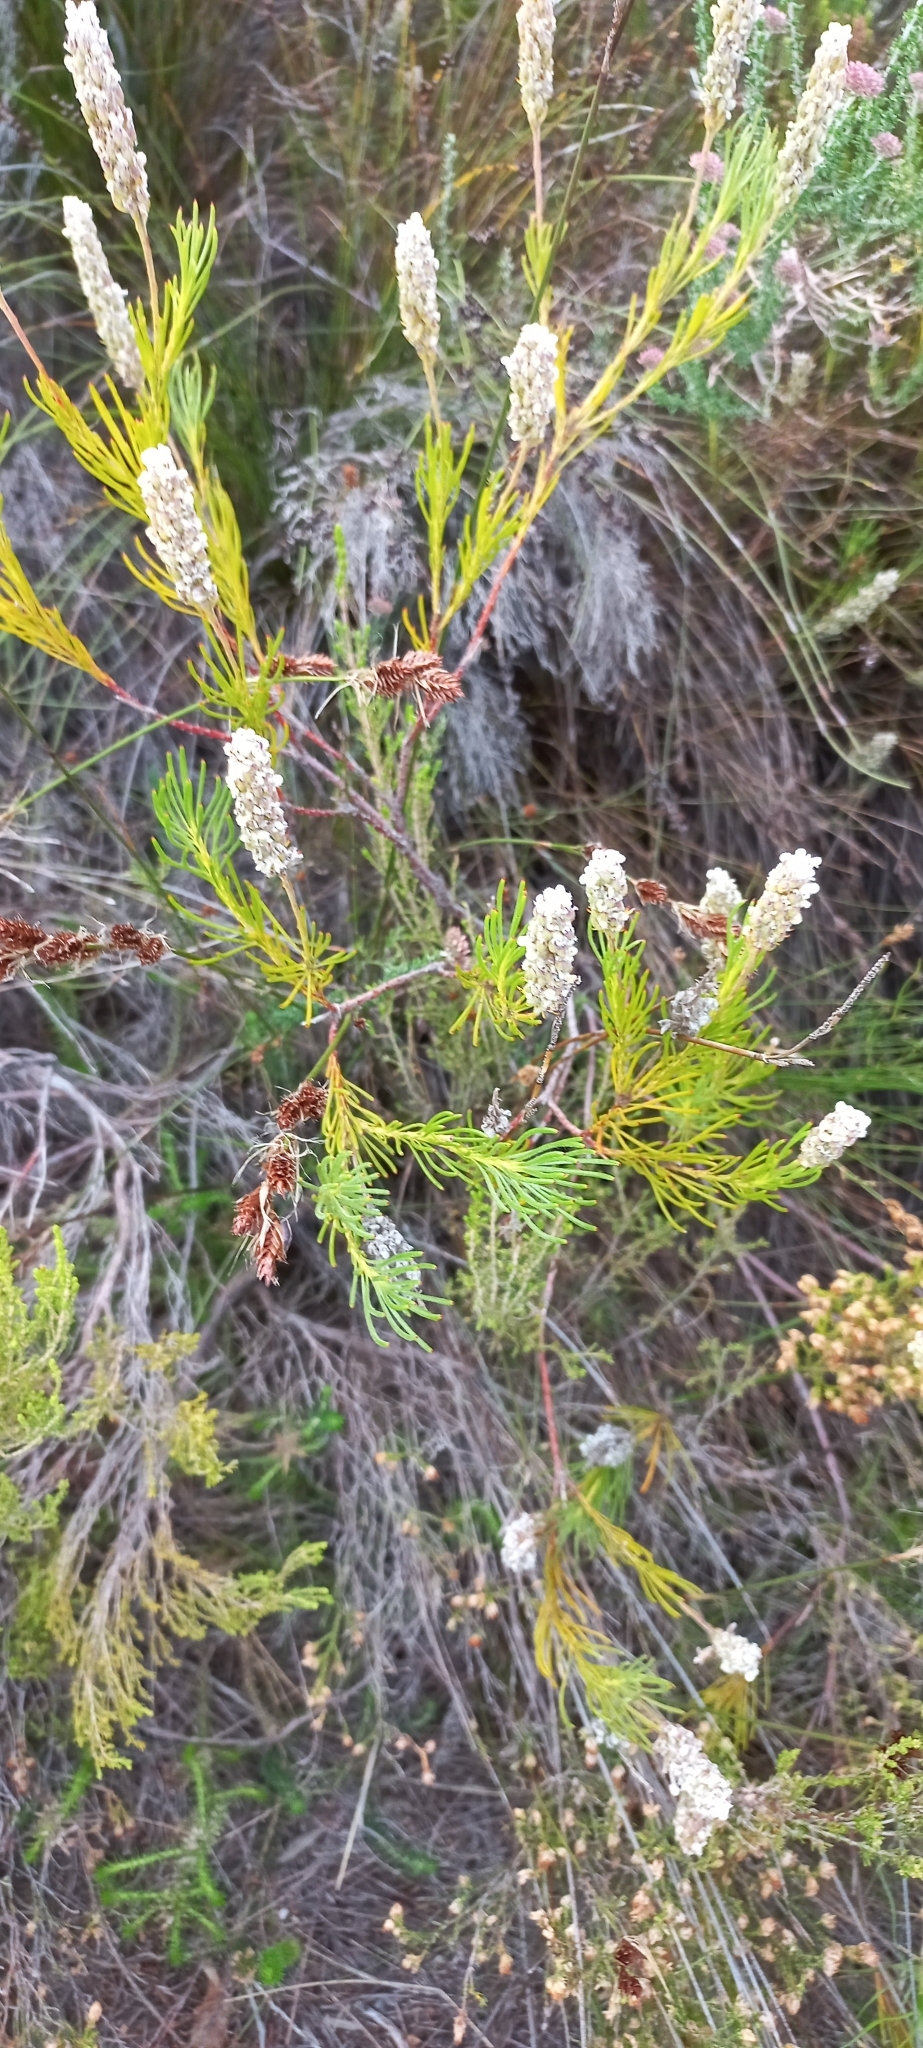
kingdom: Plantae
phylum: Tracheophyta
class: Magnoliopsida
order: Proteales
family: Proteaceae
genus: Spatalla
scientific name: Spatalla curvifolia
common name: White-stalked spoon
